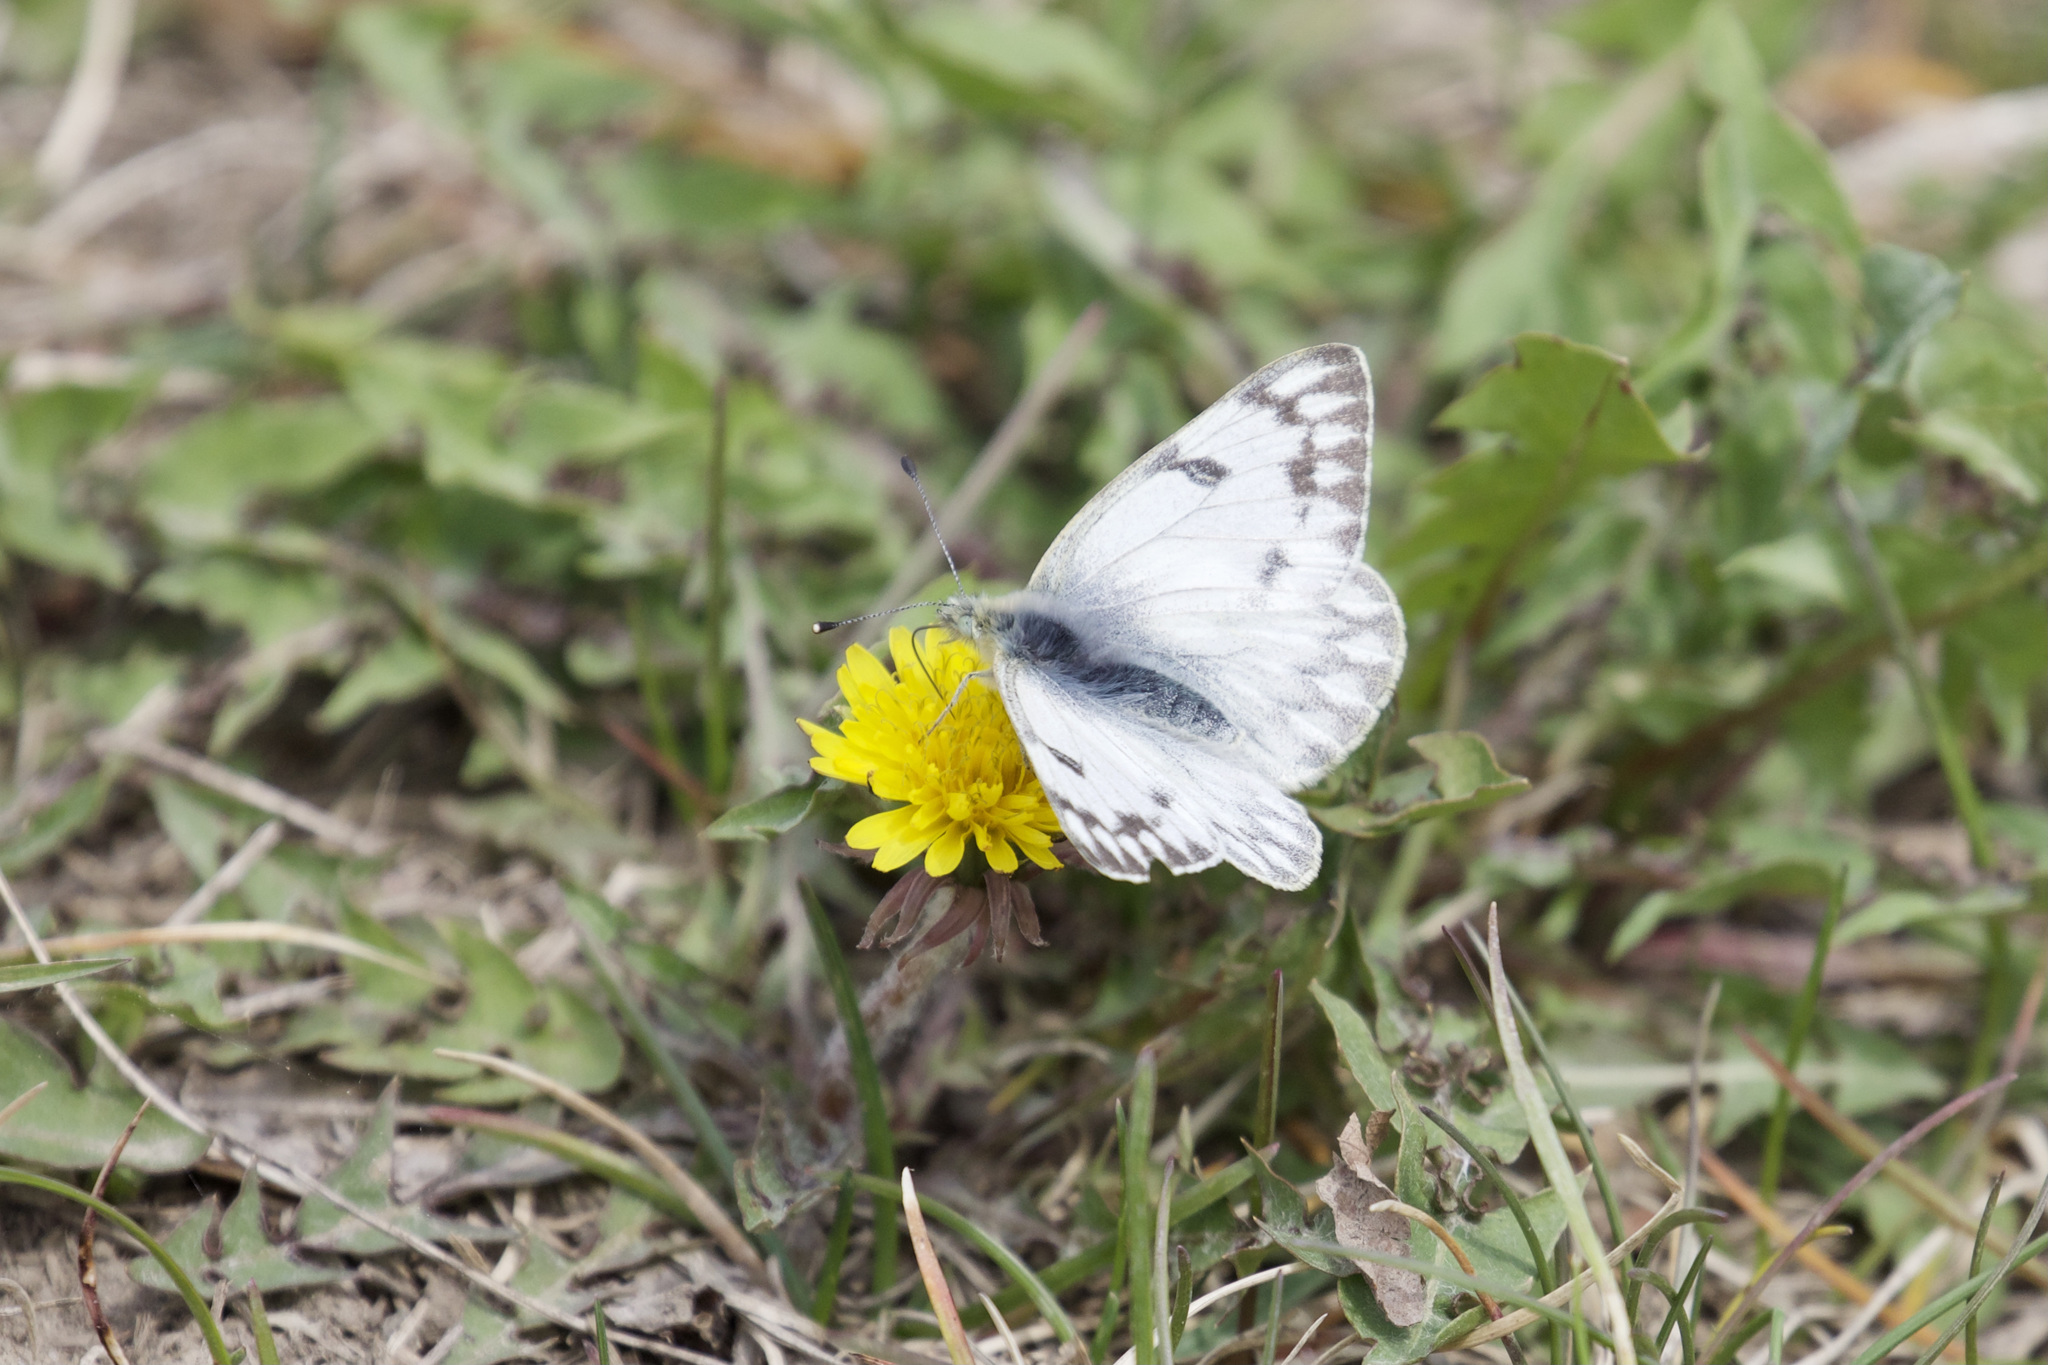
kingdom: Animalia
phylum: Arthropoda
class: Insecta
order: Lepidoptera
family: Pieridae
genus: Pontia
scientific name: Pontia occidentalis
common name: Western white
